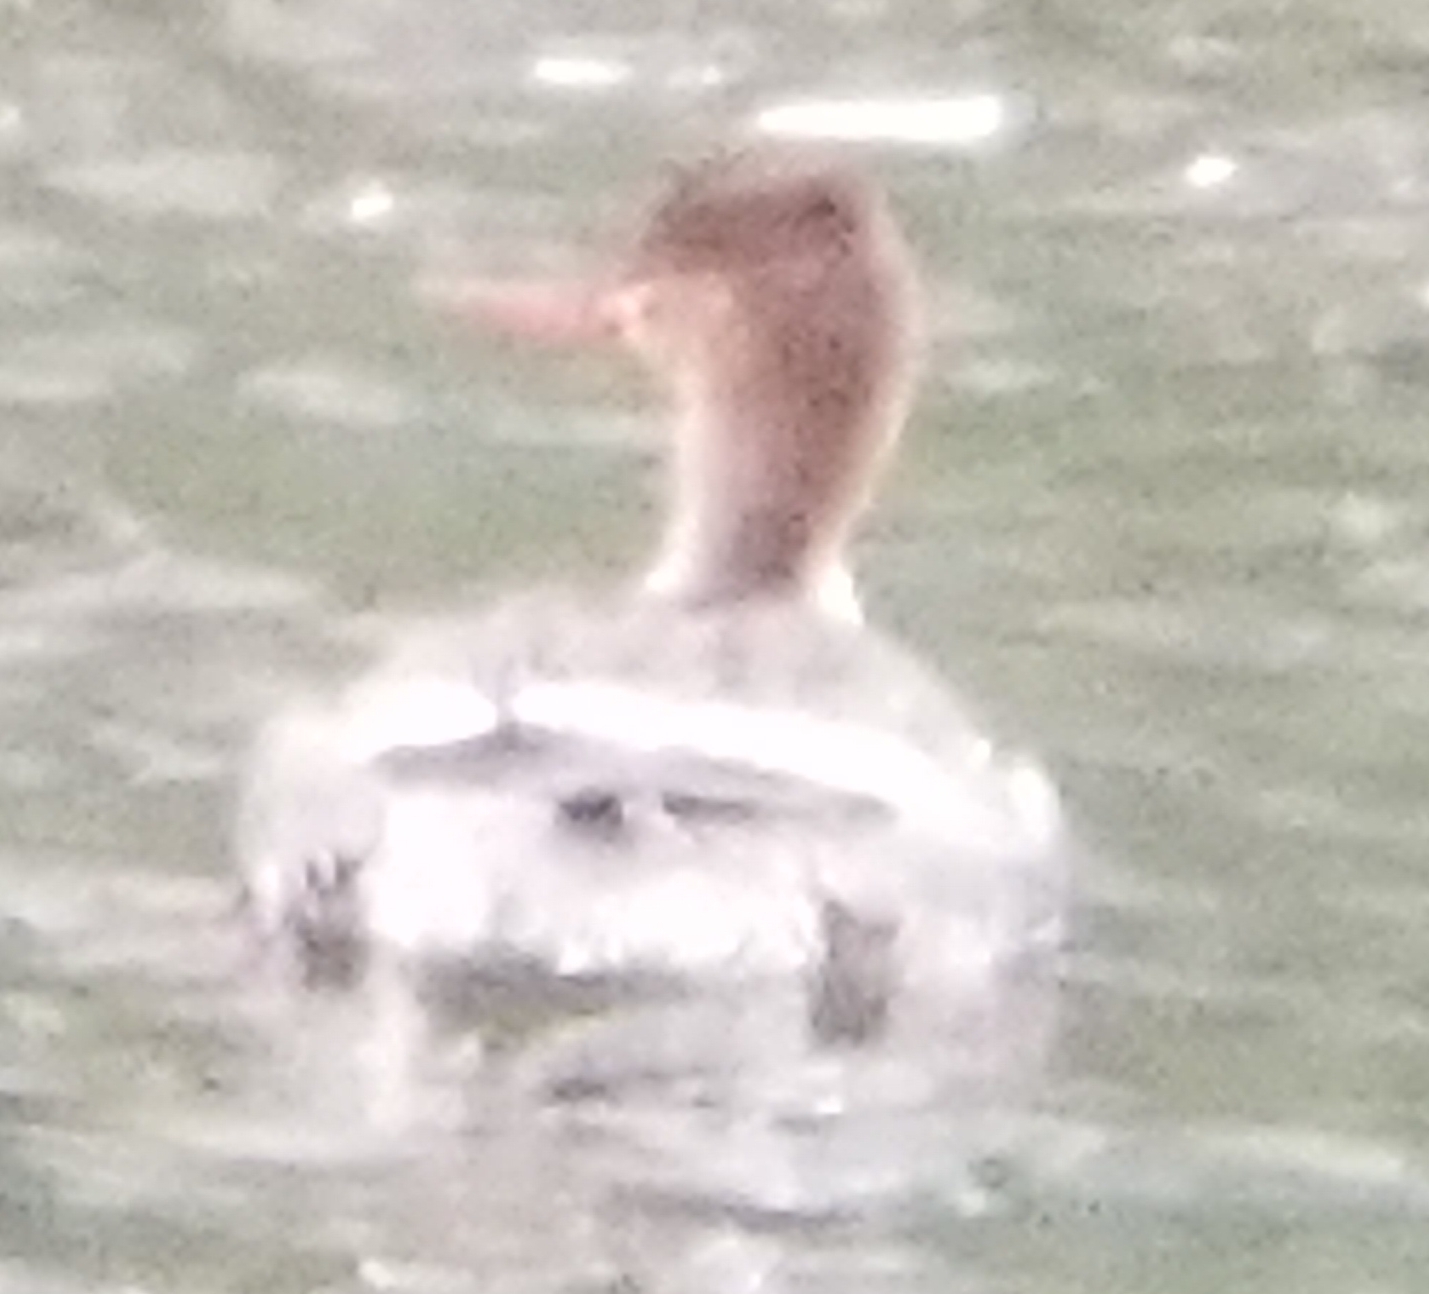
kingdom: Animalia
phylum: Chordata
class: Aves
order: Anseriformes
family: Anatidae
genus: Mergus
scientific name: Mergus serrator
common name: Red-breasted merganser
